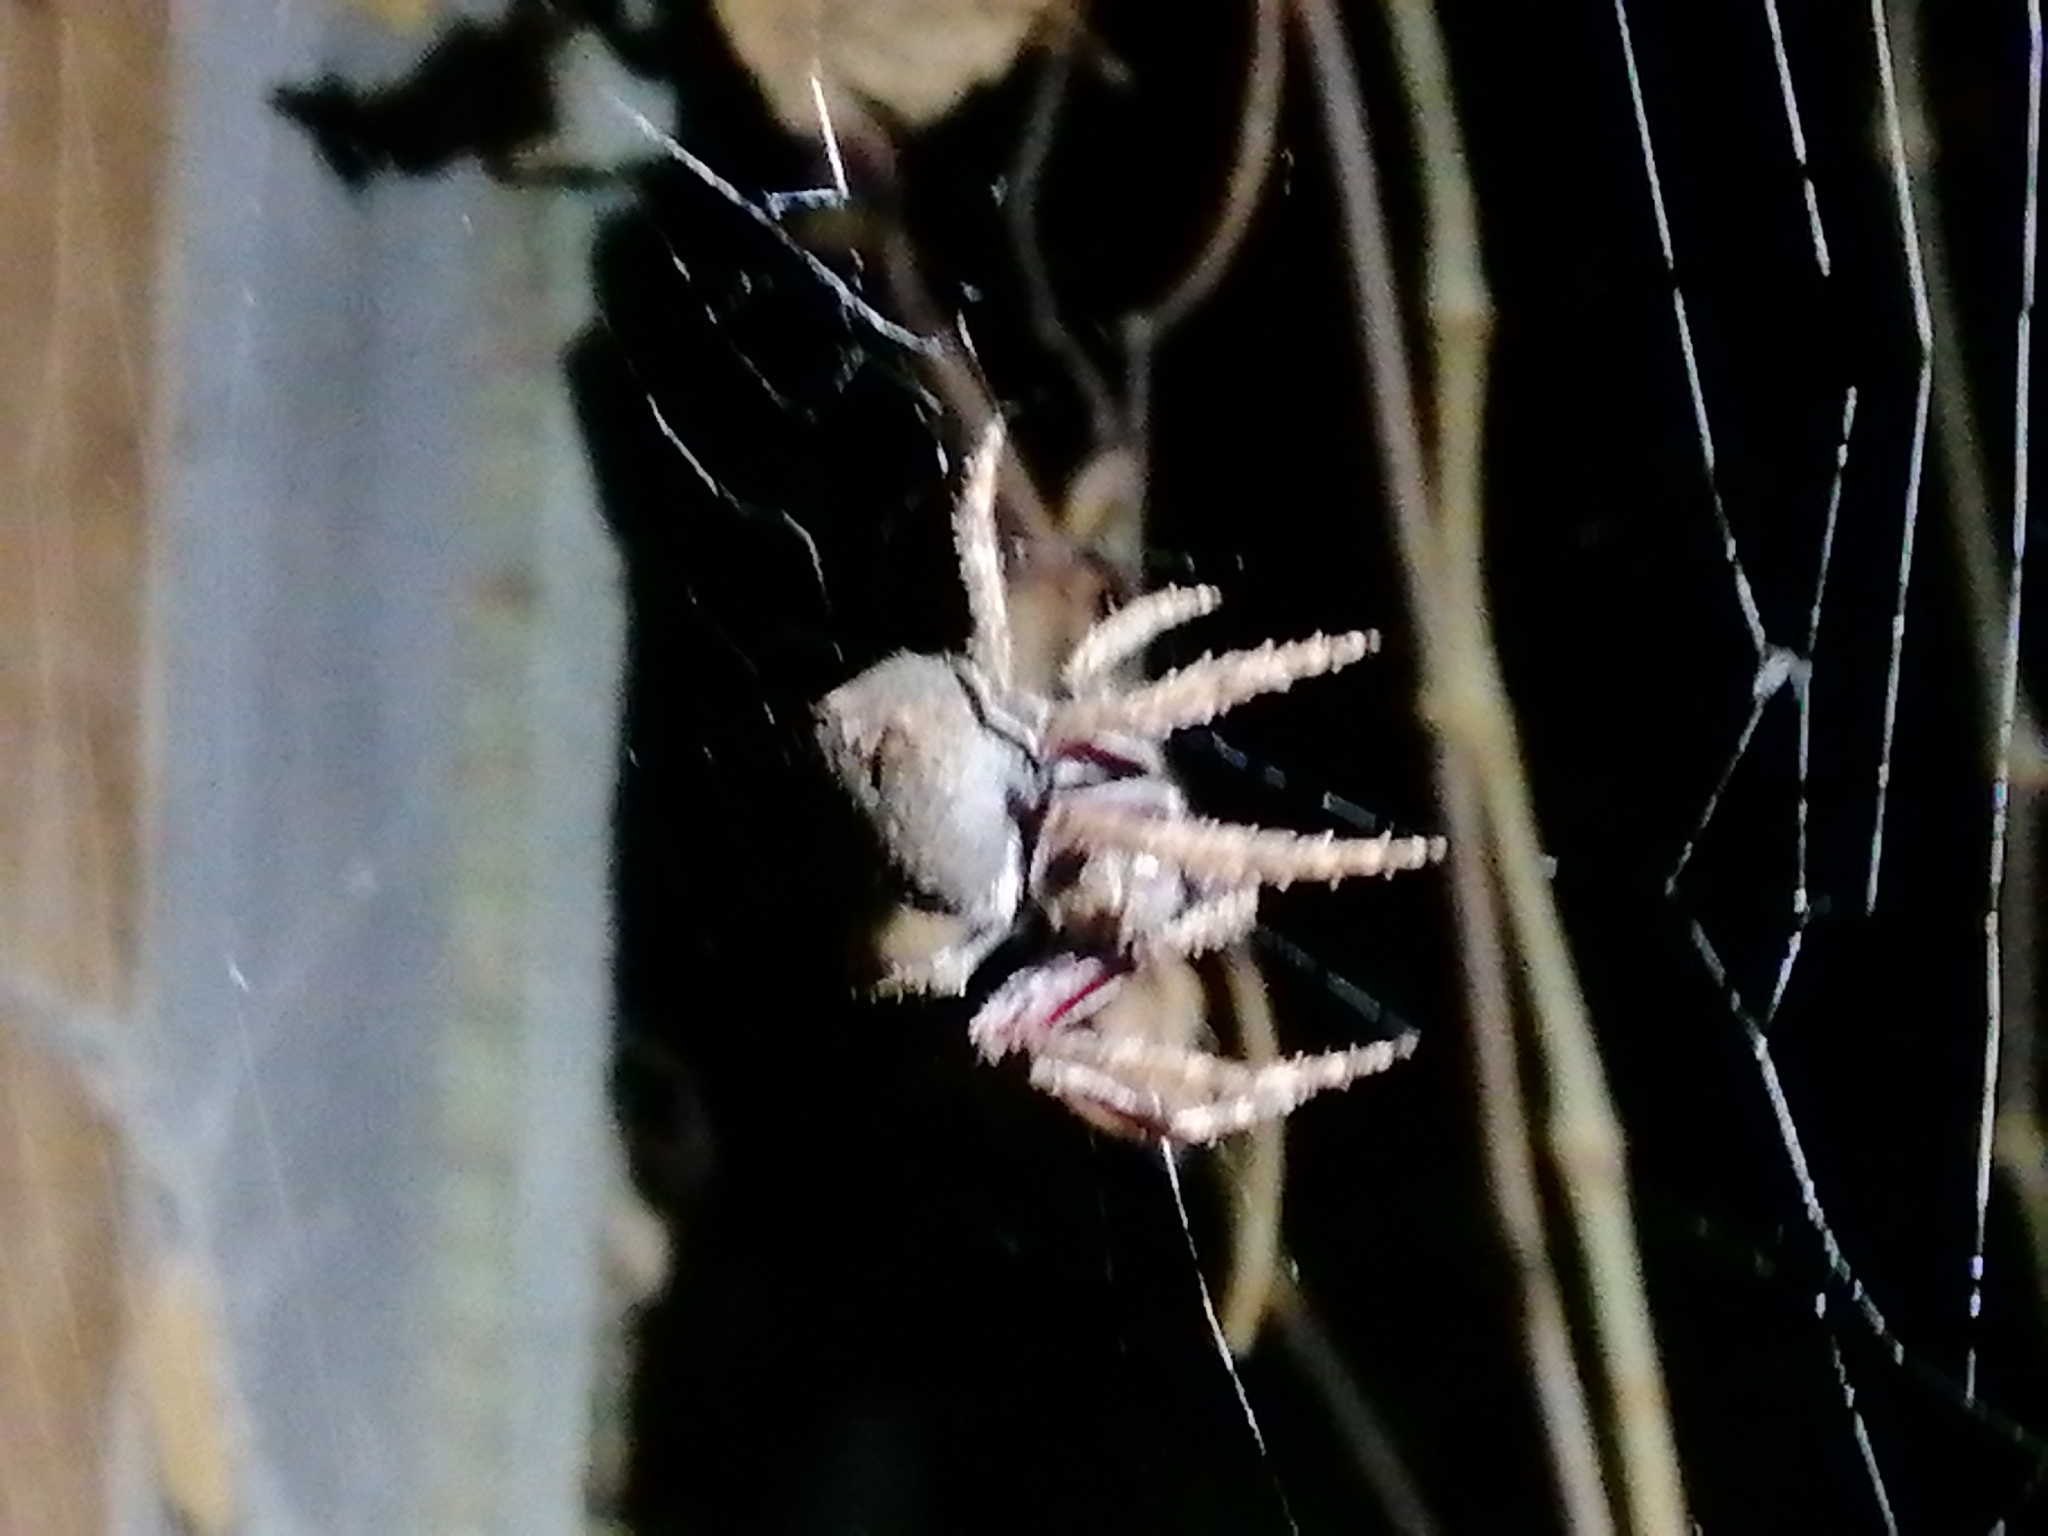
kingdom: Animalia
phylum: Arthropoda
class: Arachnida
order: Araneae
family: Araneidae
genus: Eriophora
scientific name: Eriophora pustulosa
